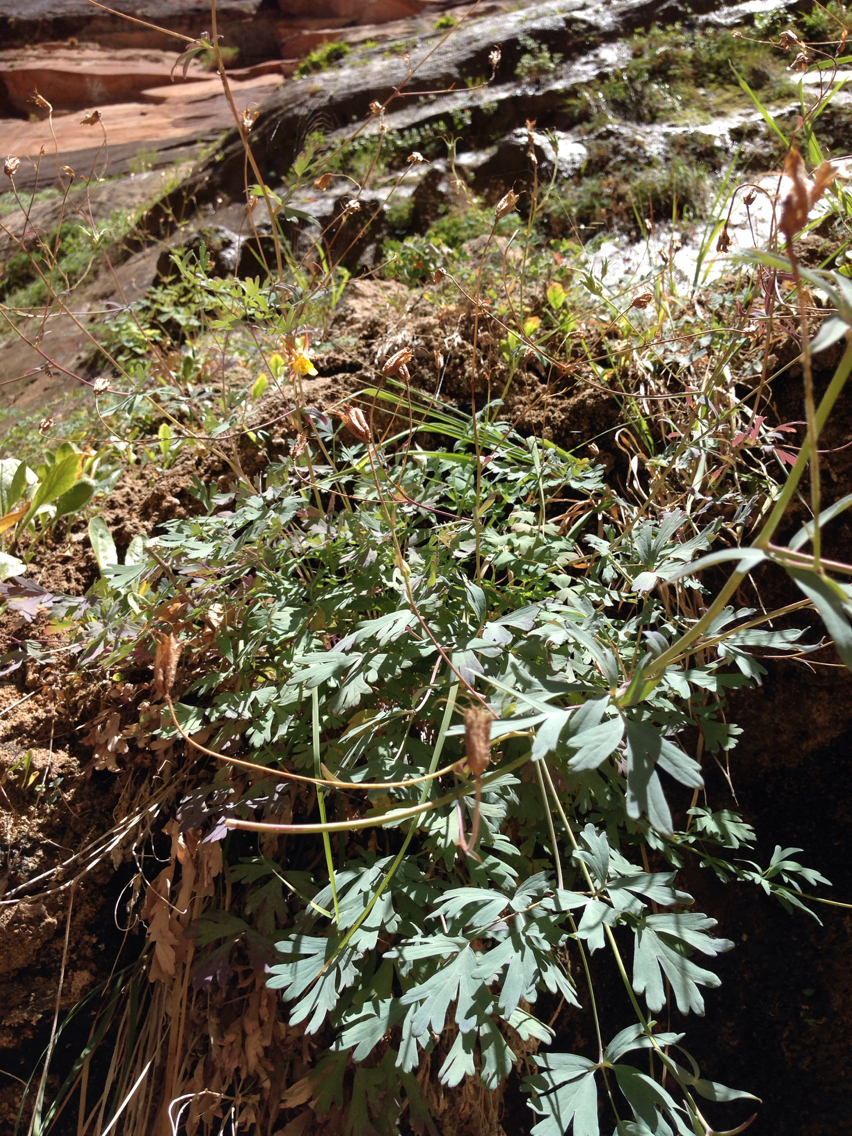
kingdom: Plantae
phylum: Tracheophyta
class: Magnoliopsida
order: Ranunculales
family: Ranunculaceae
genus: Aquilegia
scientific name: Aquilegia formosa
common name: Sitka columbine
